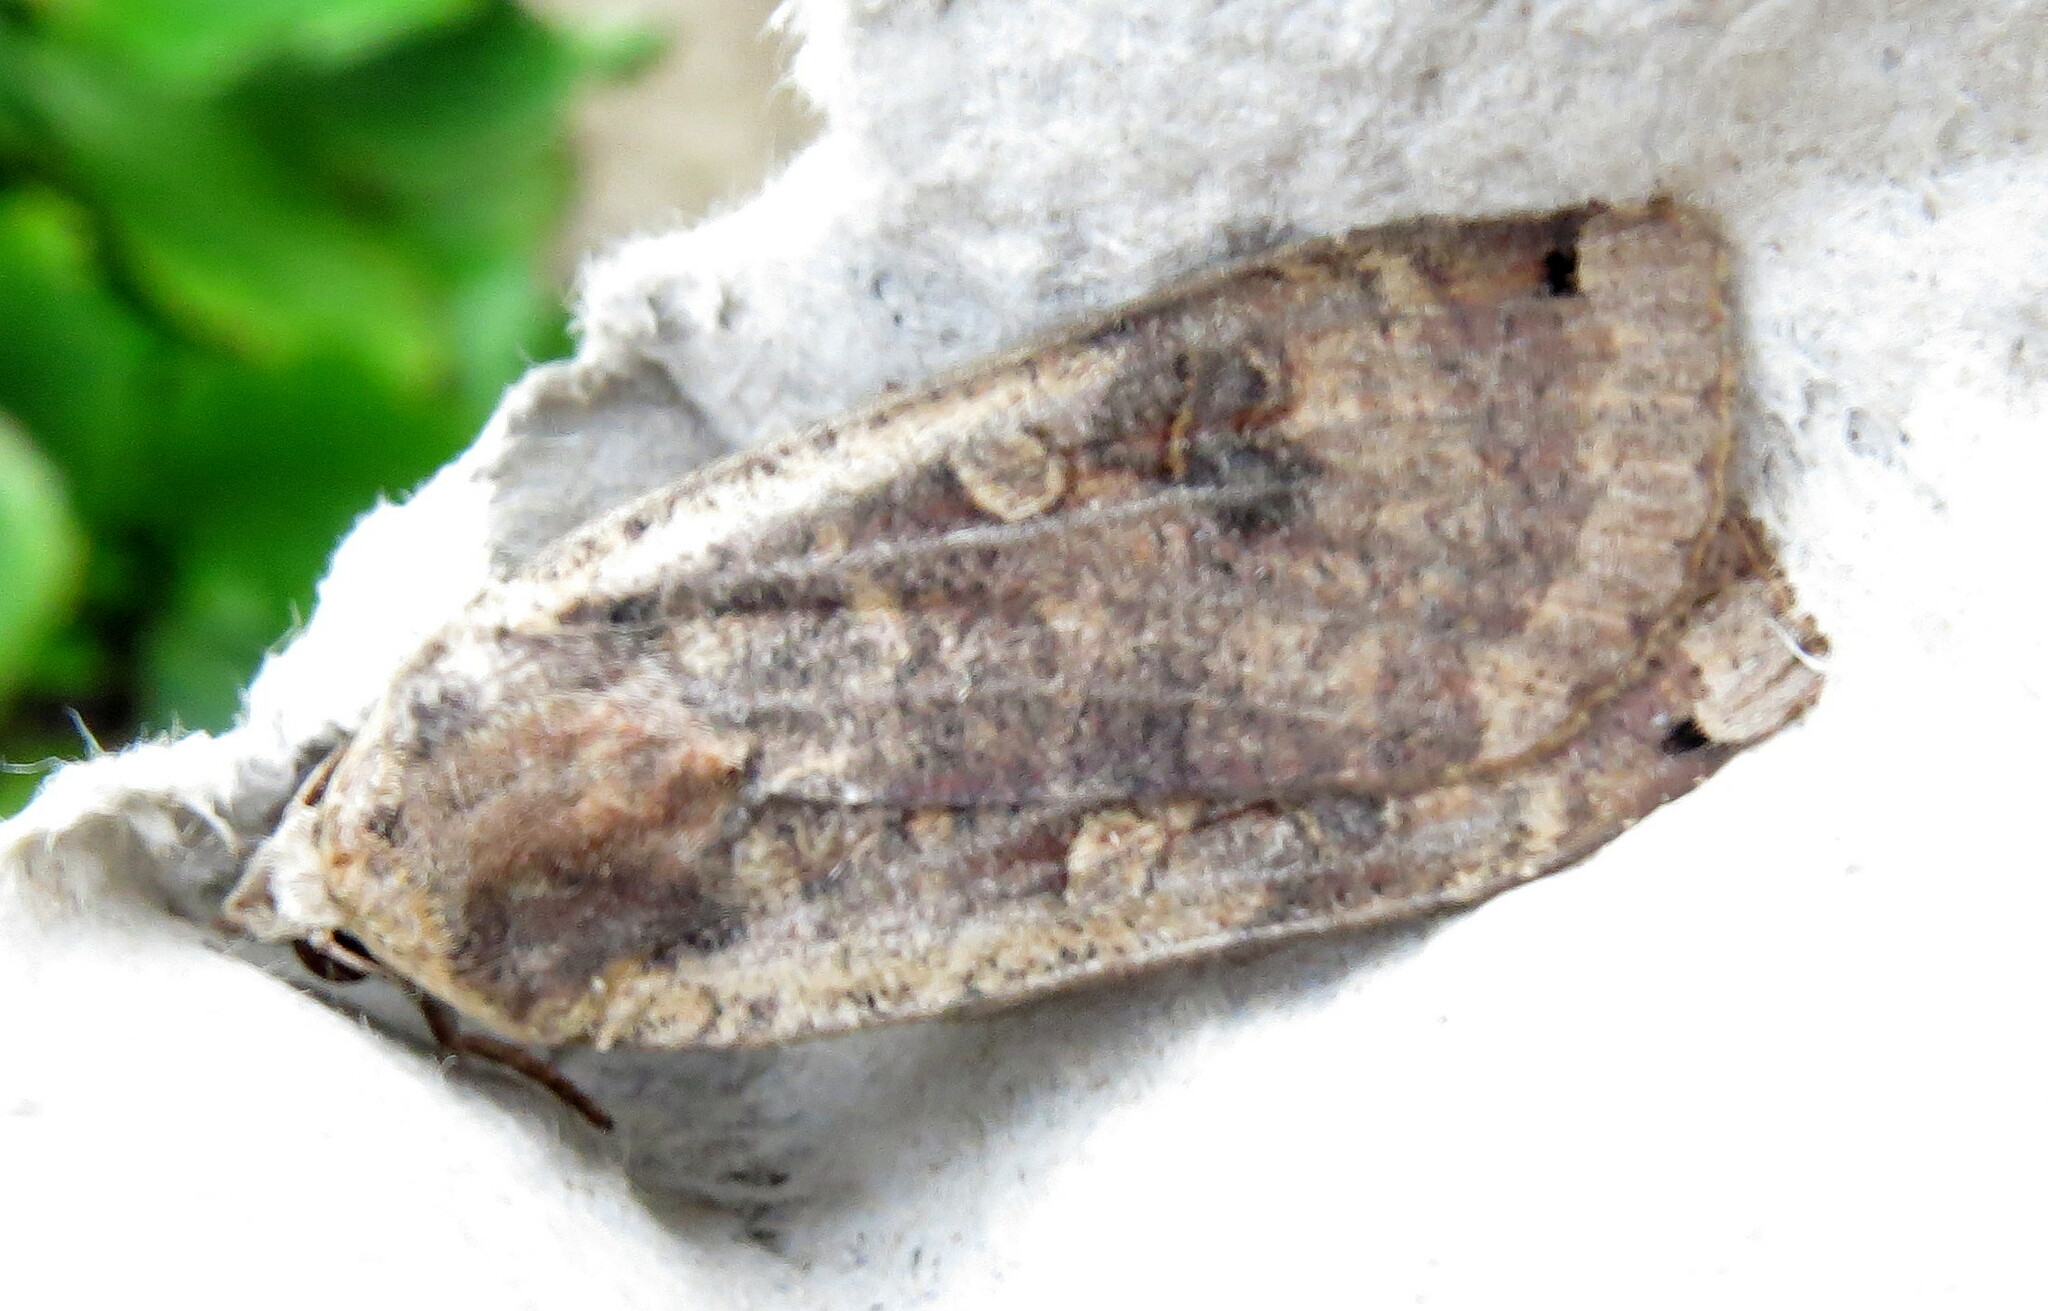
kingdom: Animalia
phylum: Arthropoda
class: Insecta
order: Lepidoptera
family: Noctuidae
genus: Noctua
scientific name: Noctua pronuba
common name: Large yellow underwing
